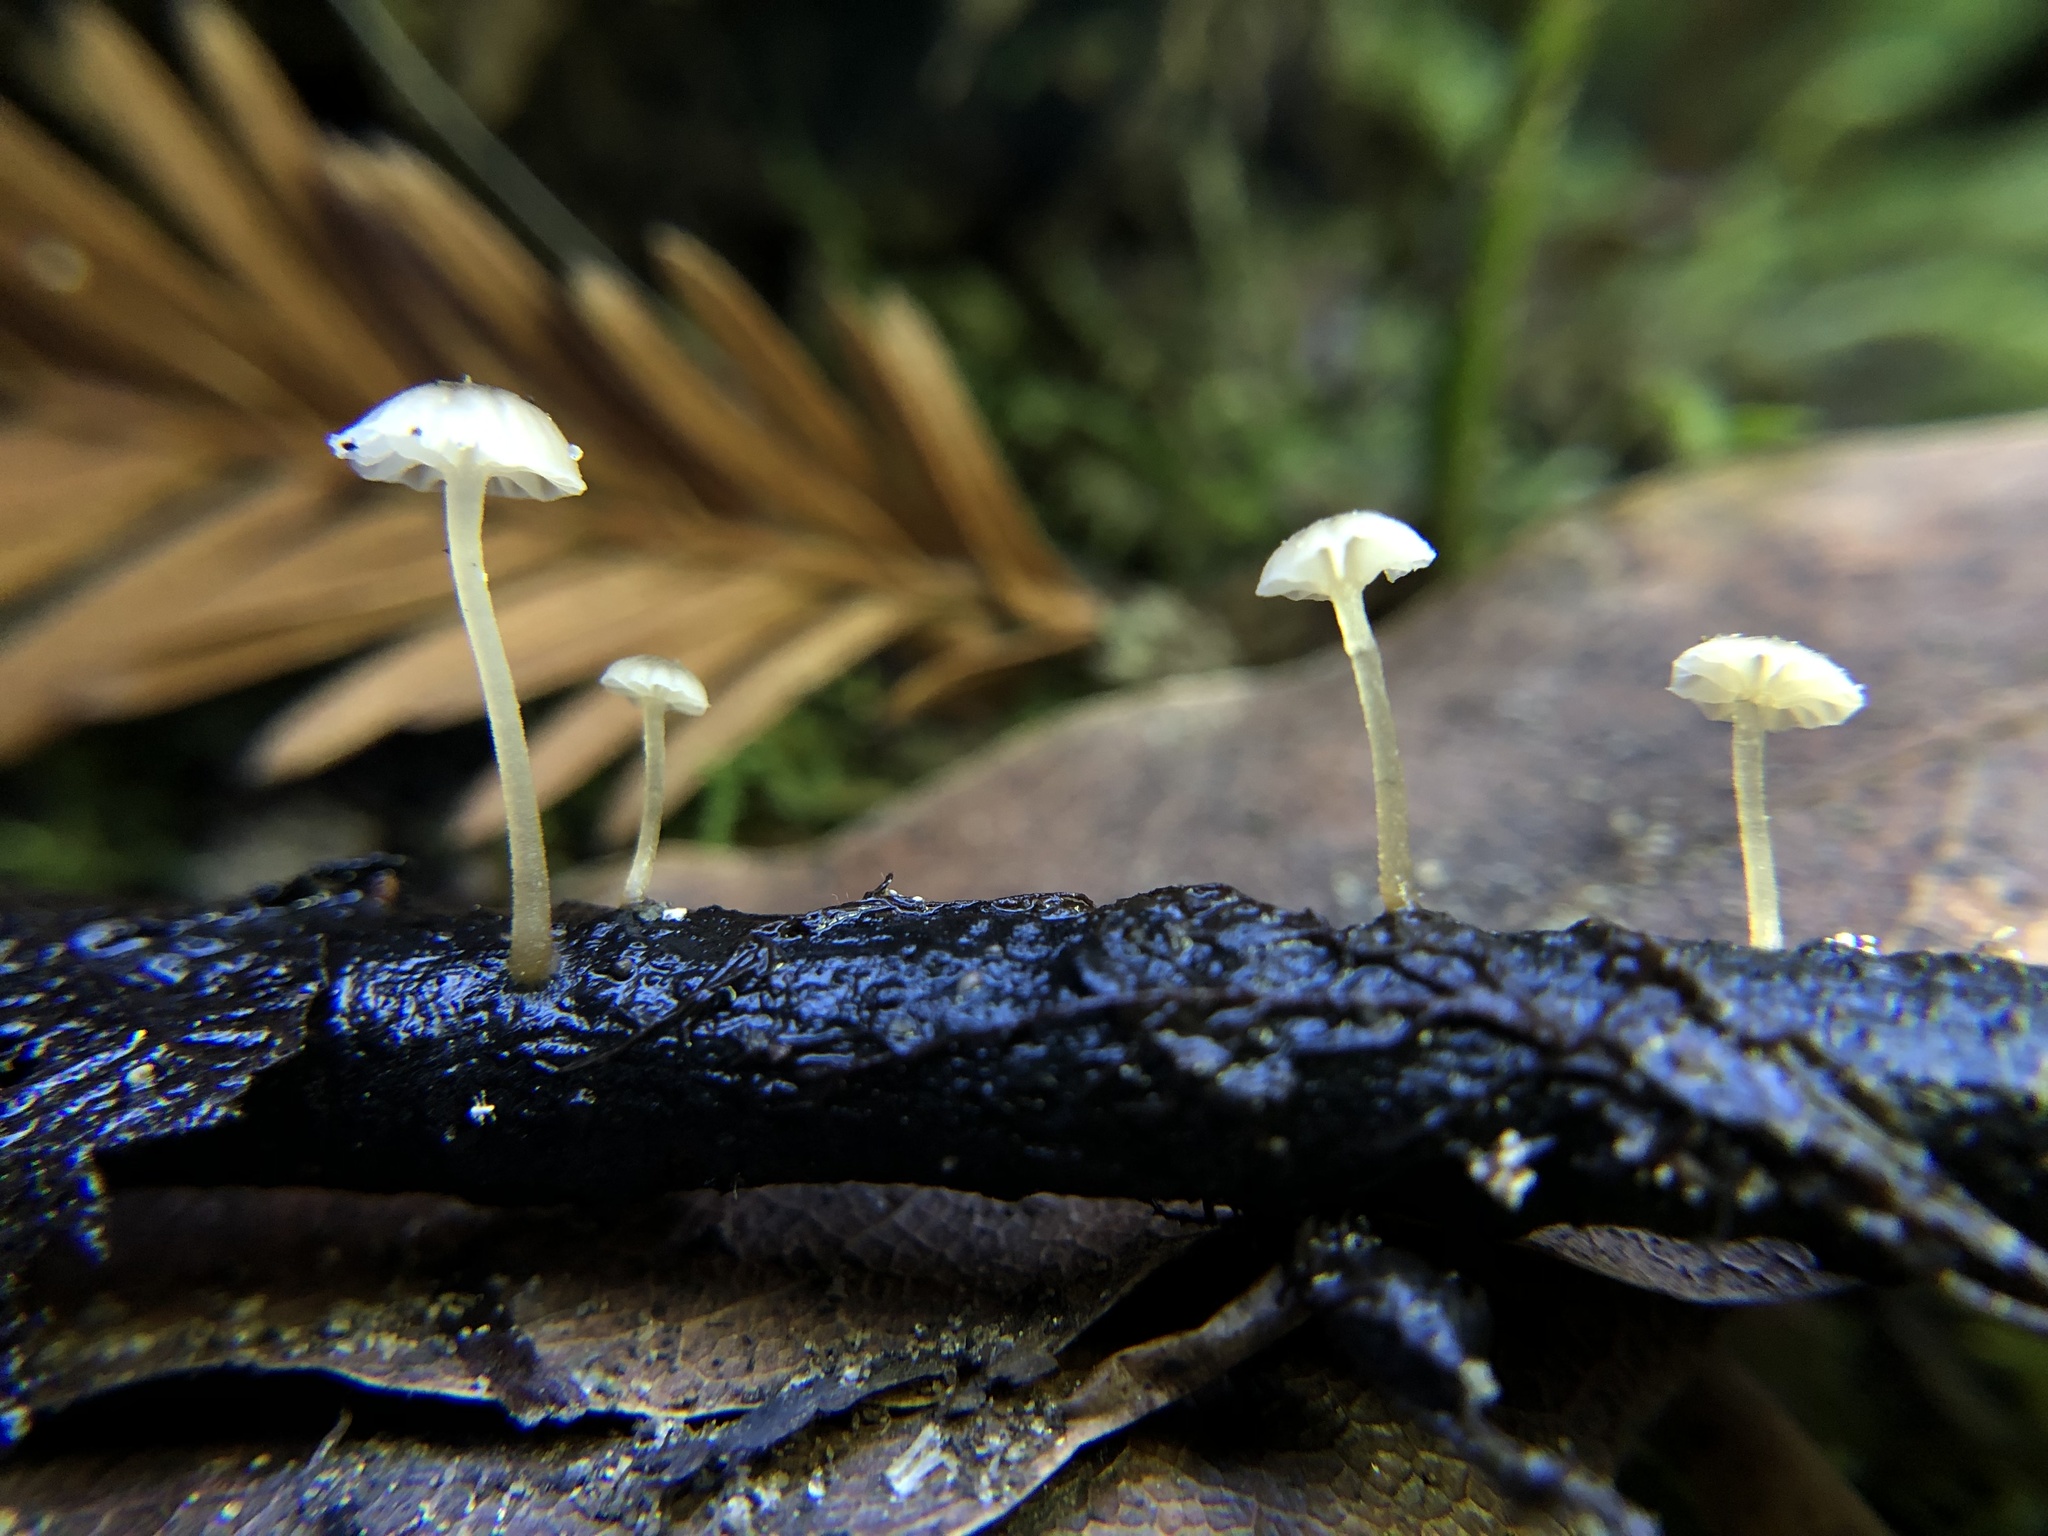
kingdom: Fungi
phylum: Basidiomycota
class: Agaricomycetes
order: Agaricales
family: Porotheleaceae
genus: Phloeomana
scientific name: Phloeomana speirea
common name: Bark bonnet
